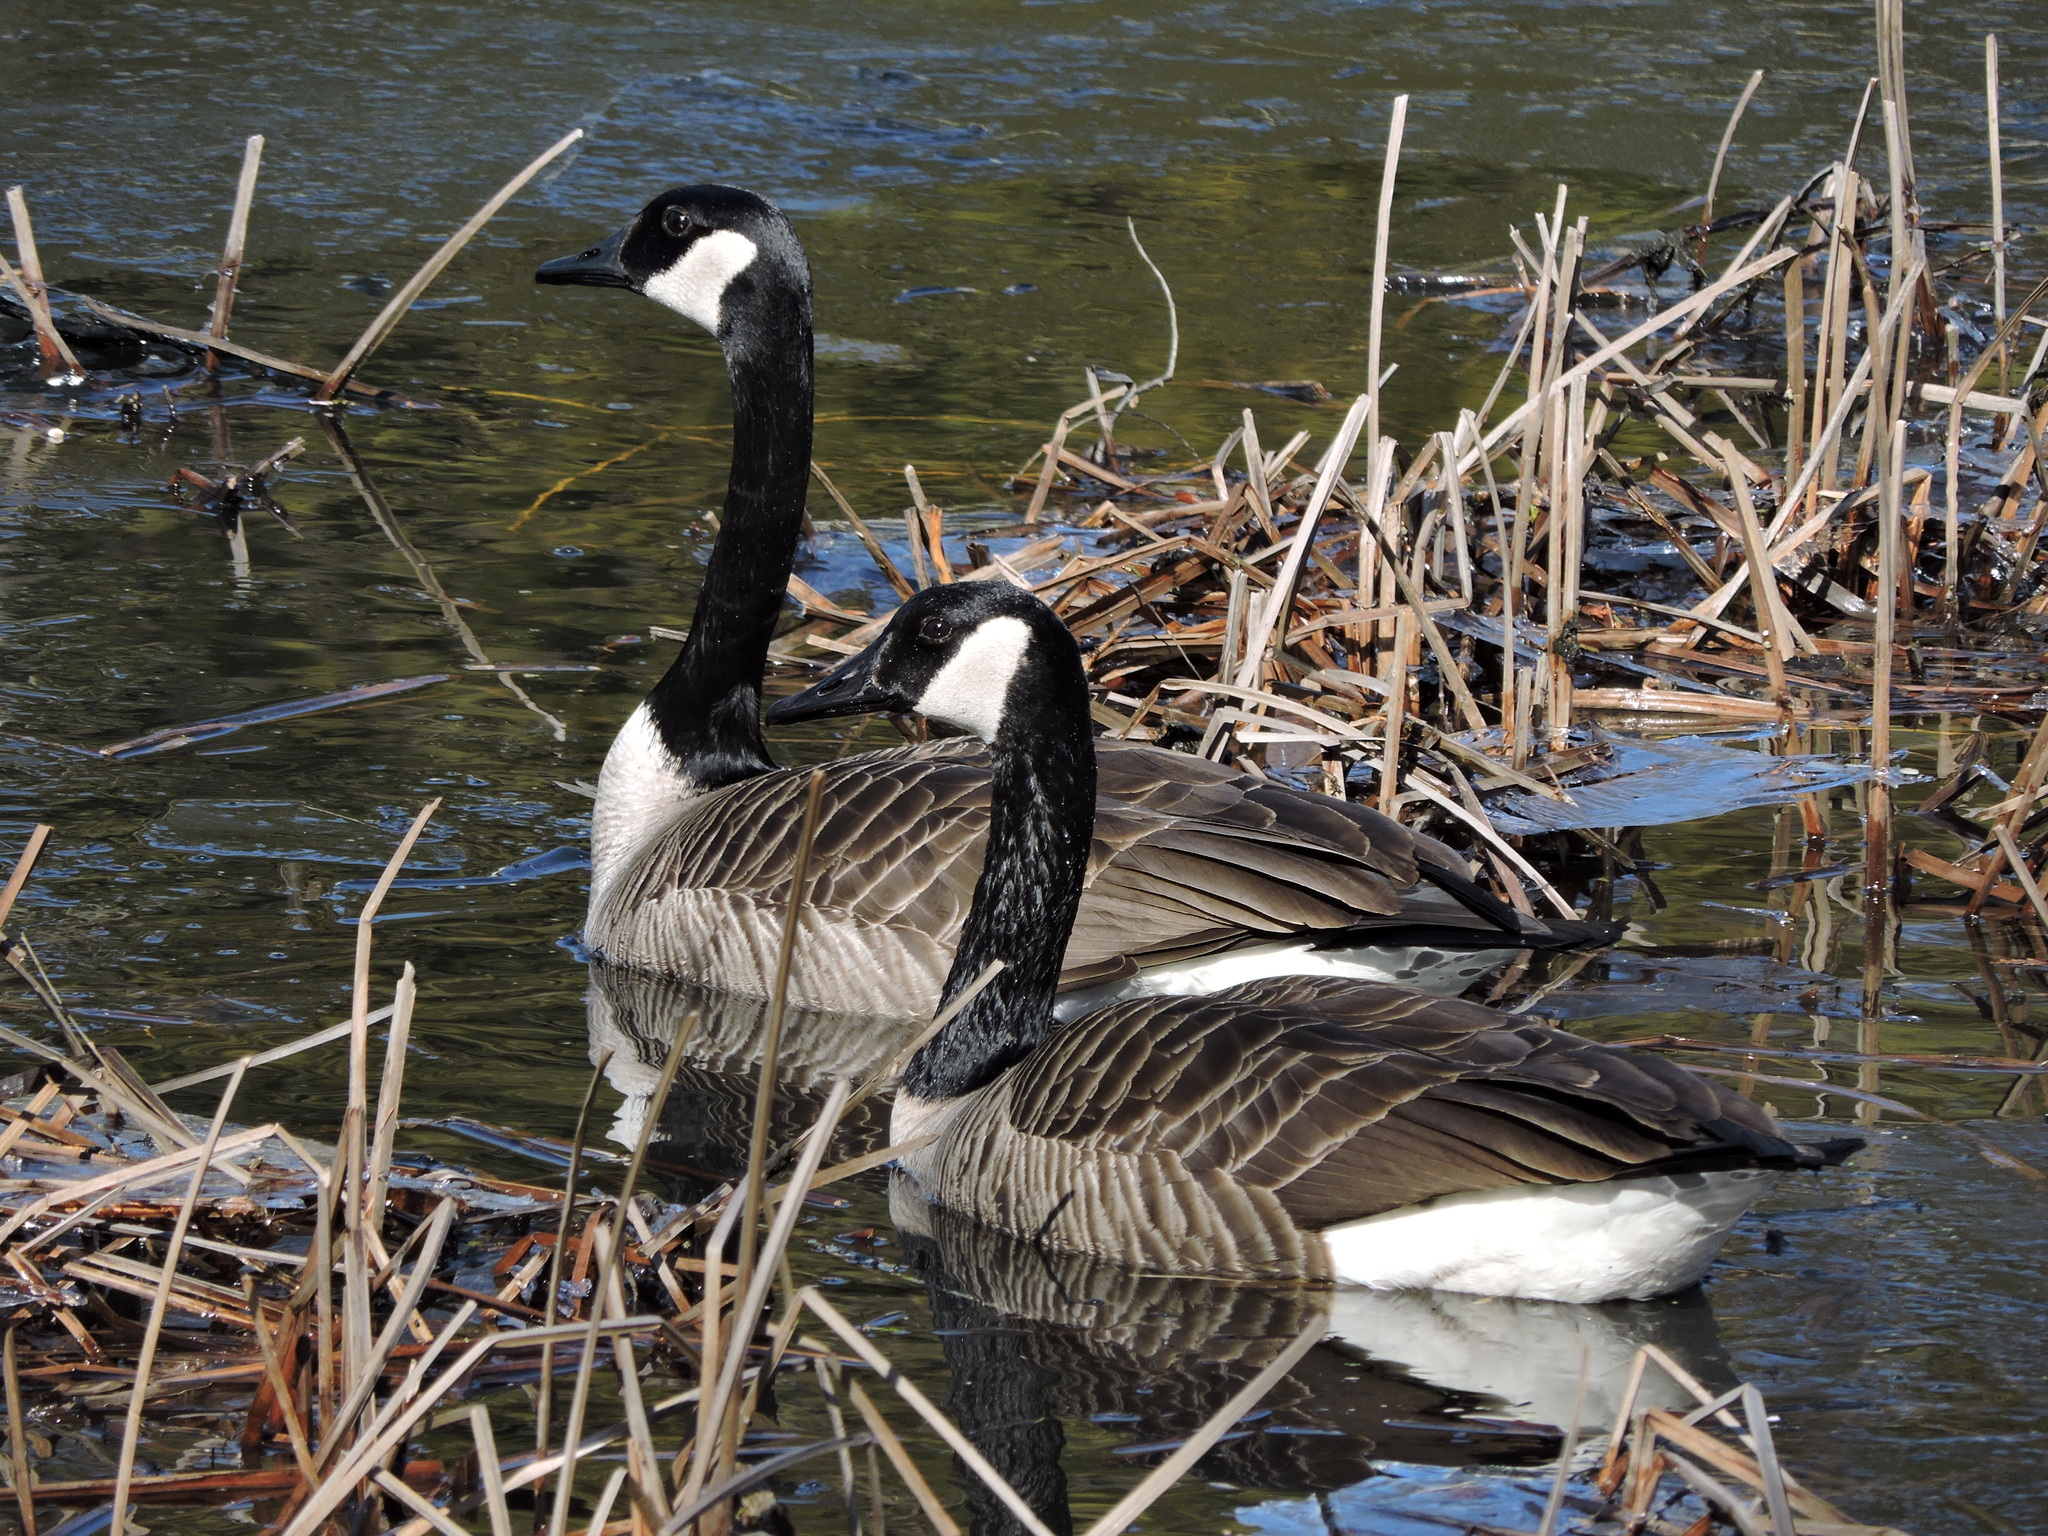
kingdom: Animalia
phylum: Chordata
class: Aves
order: Anseriformes
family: Anatidae
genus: Branta
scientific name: Branta canadensis
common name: Canada goose
